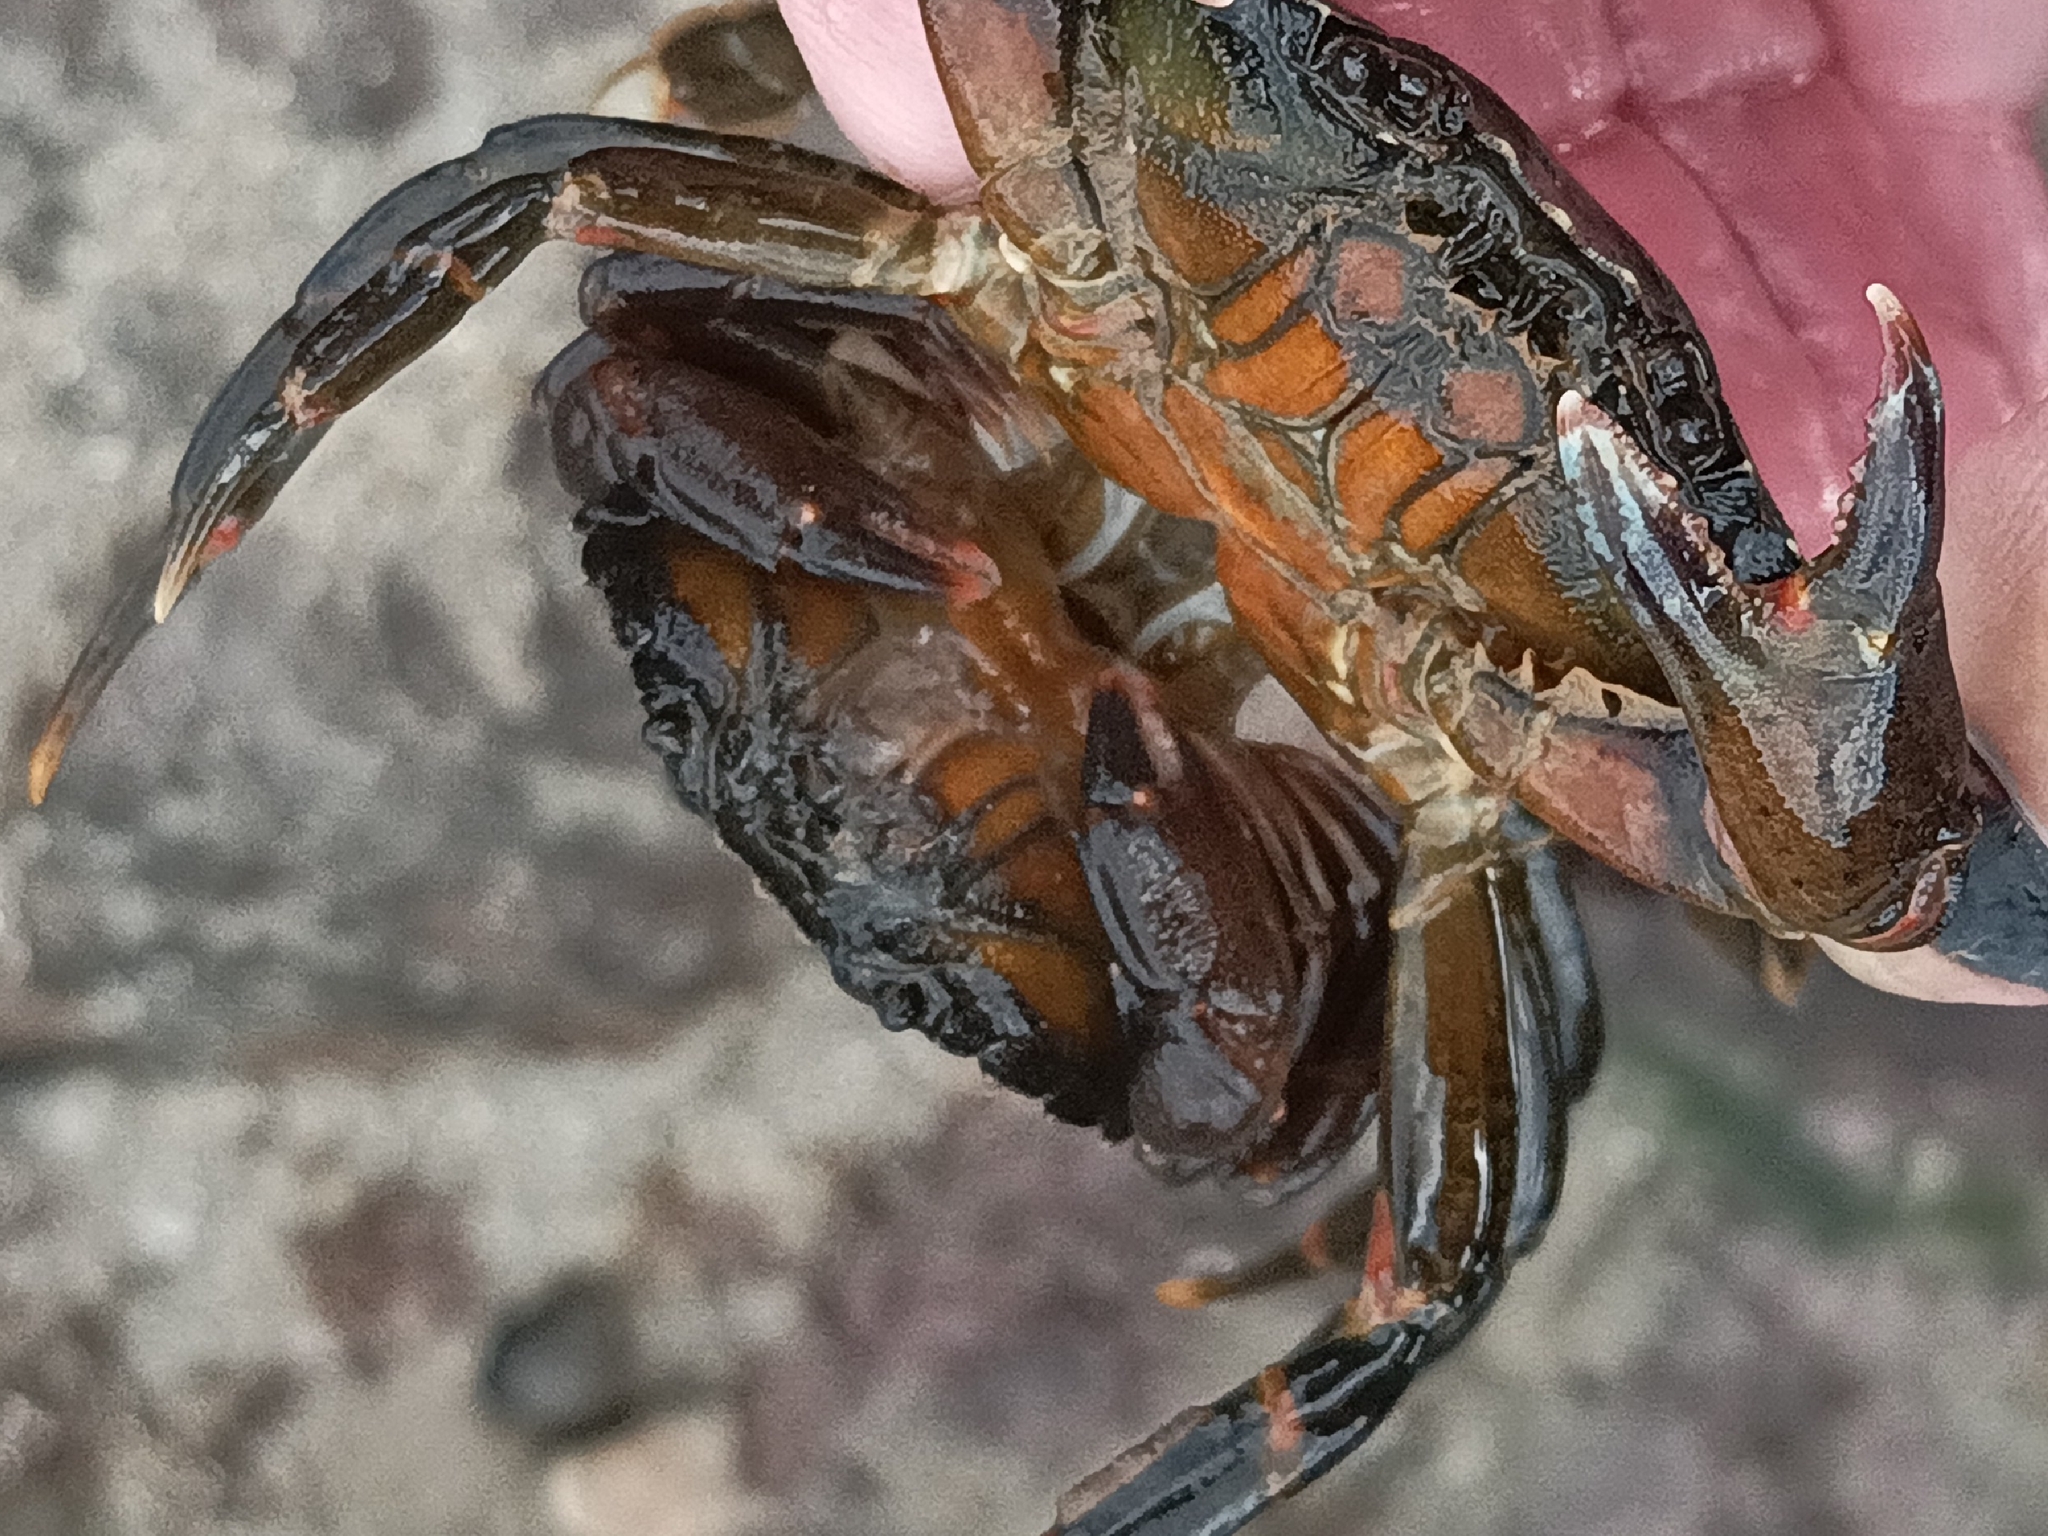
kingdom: Animalia
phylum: Arthropoda
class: Malacostraca
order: Decapoda
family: Carcinidae
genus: Carcinus
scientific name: Carcinus maenas
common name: European green crab
